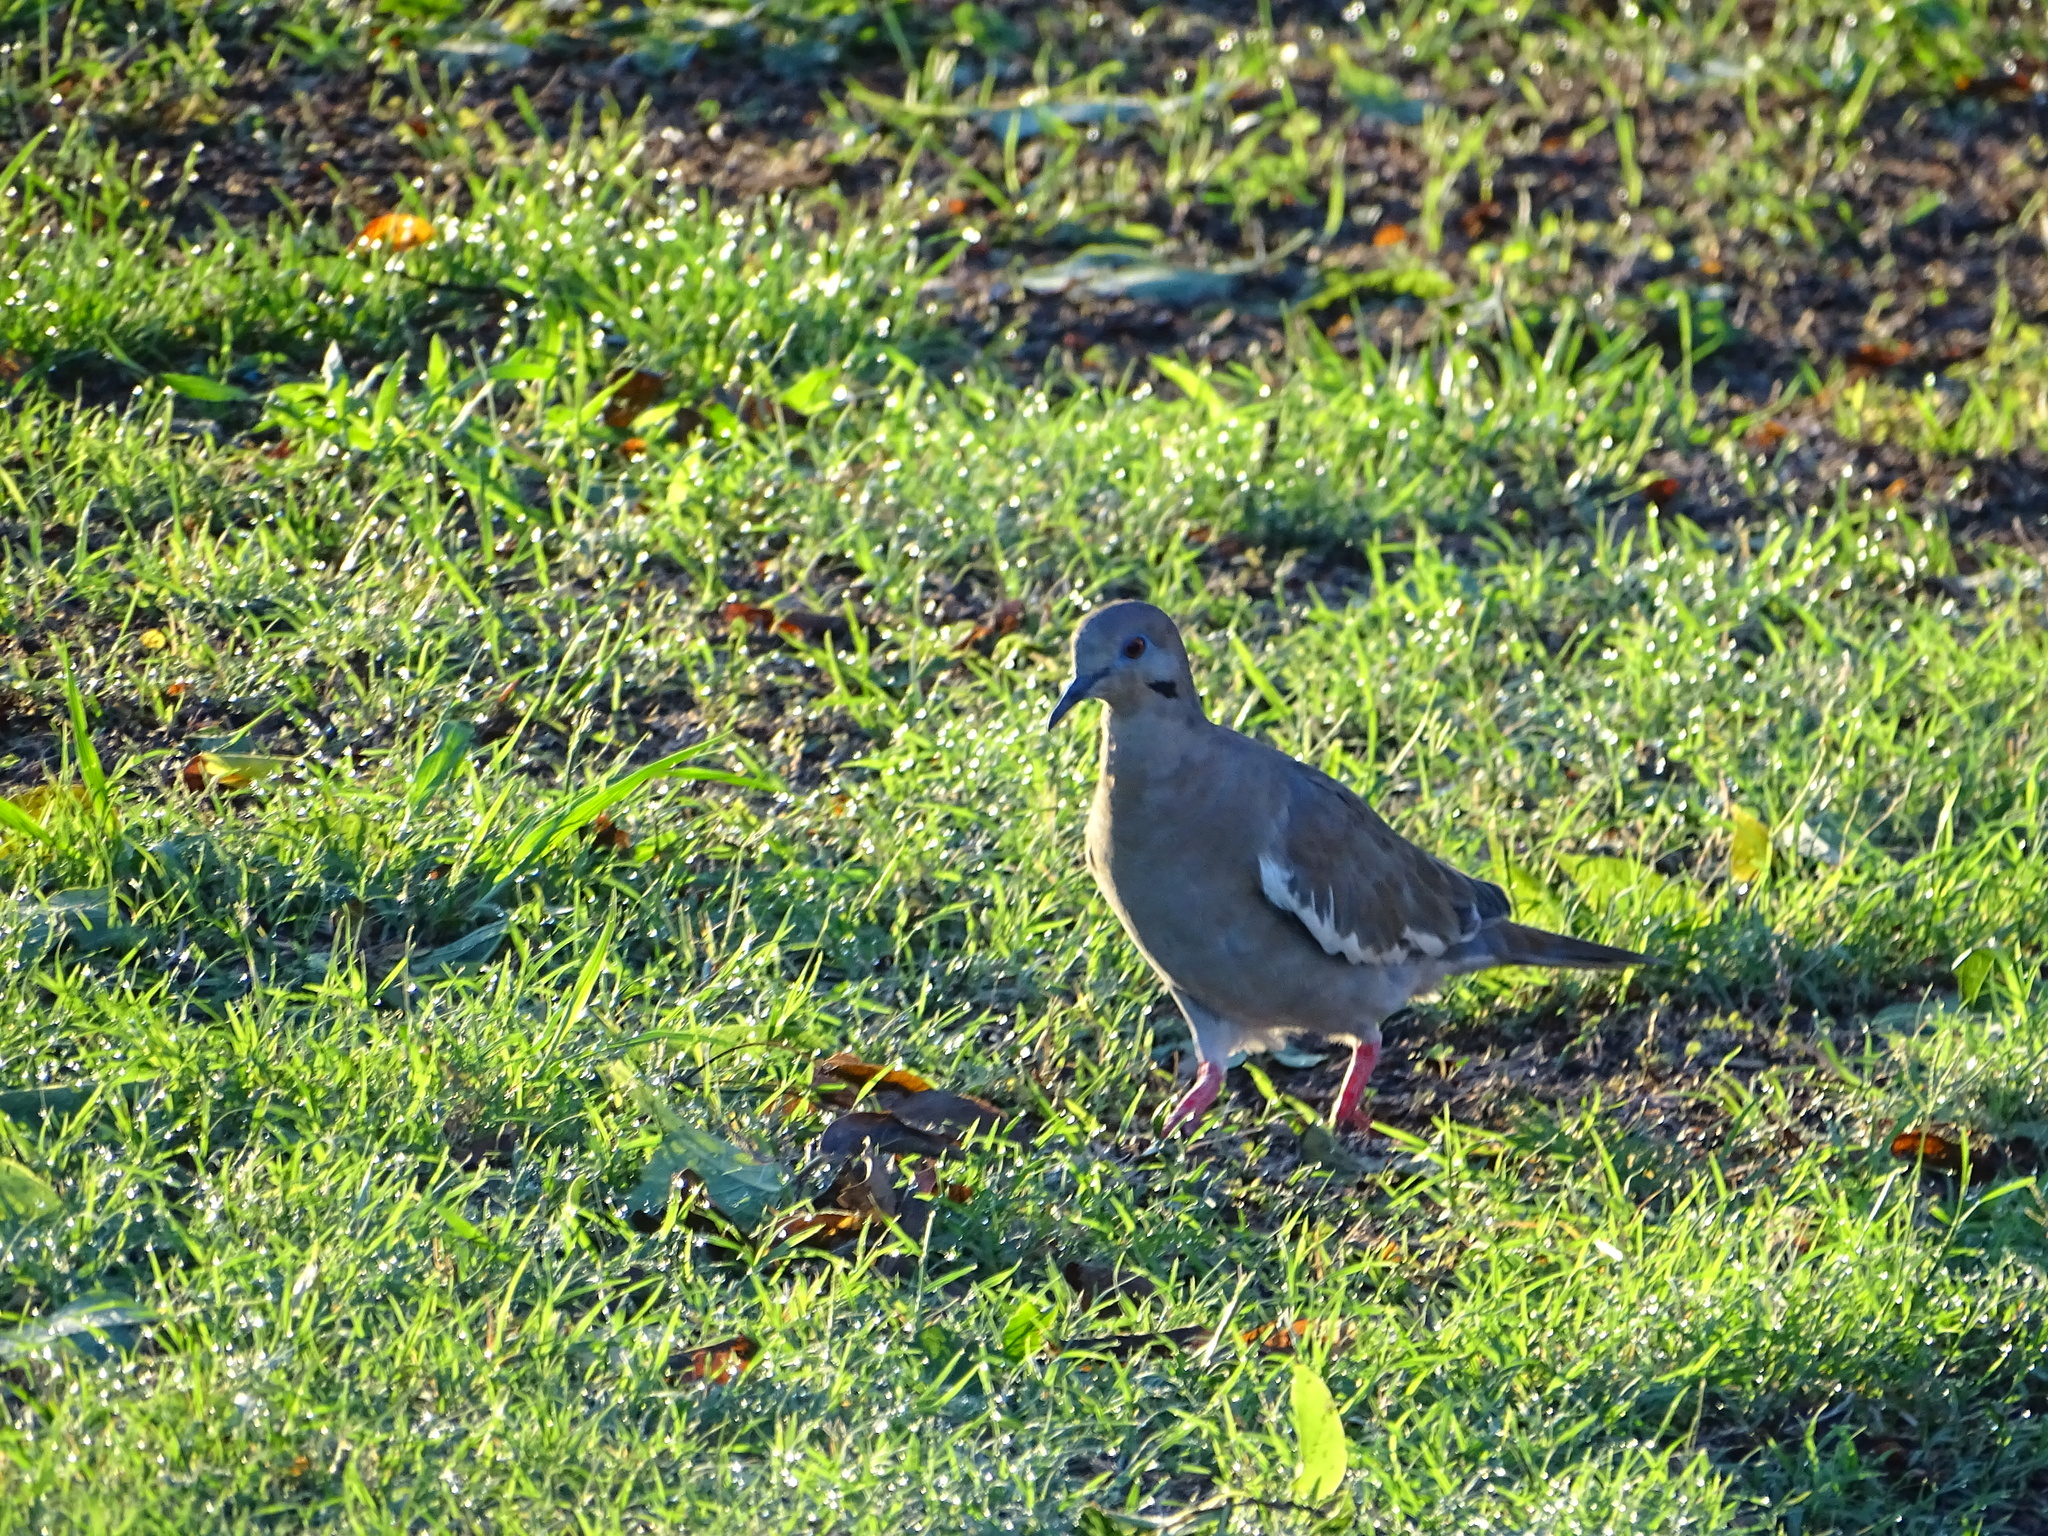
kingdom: Animalia
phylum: Chordata
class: Aves
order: Columbiformes
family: Columbidae
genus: Zenaida
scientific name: Zenaida asiatica
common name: White-winged dove
